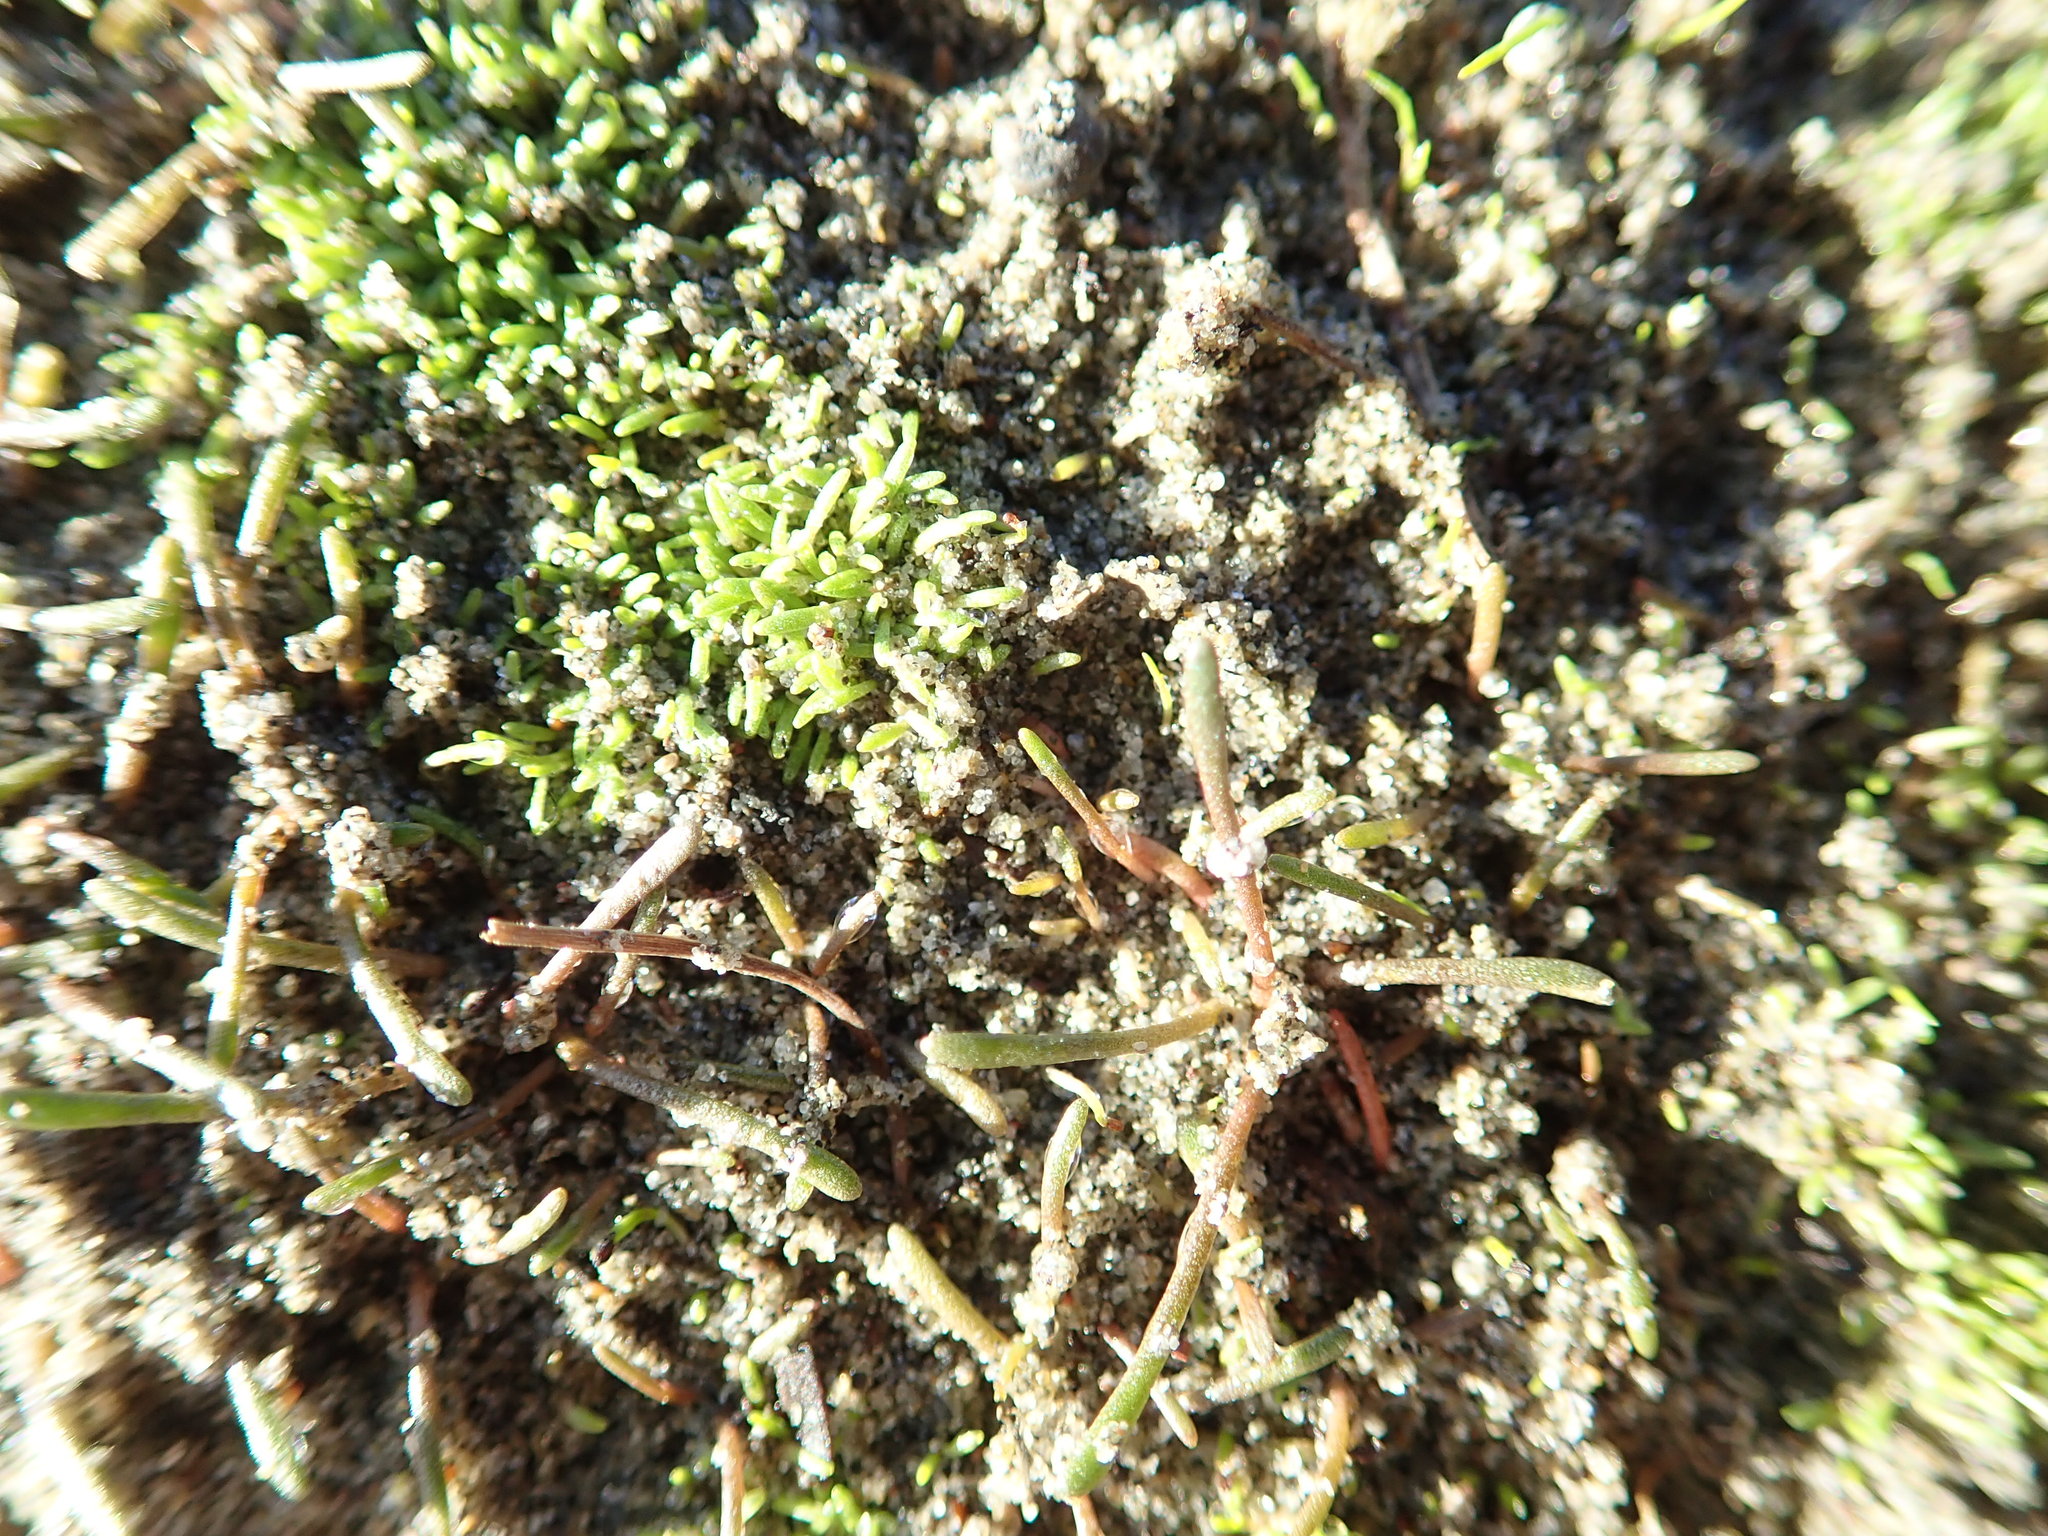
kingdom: Plantae
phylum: Tracheophyta
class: Magnoliopsida
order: Lamiales
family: Scrophulariaceae
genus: Limosella
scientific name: Limosella australis
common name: Welsh mudwort
